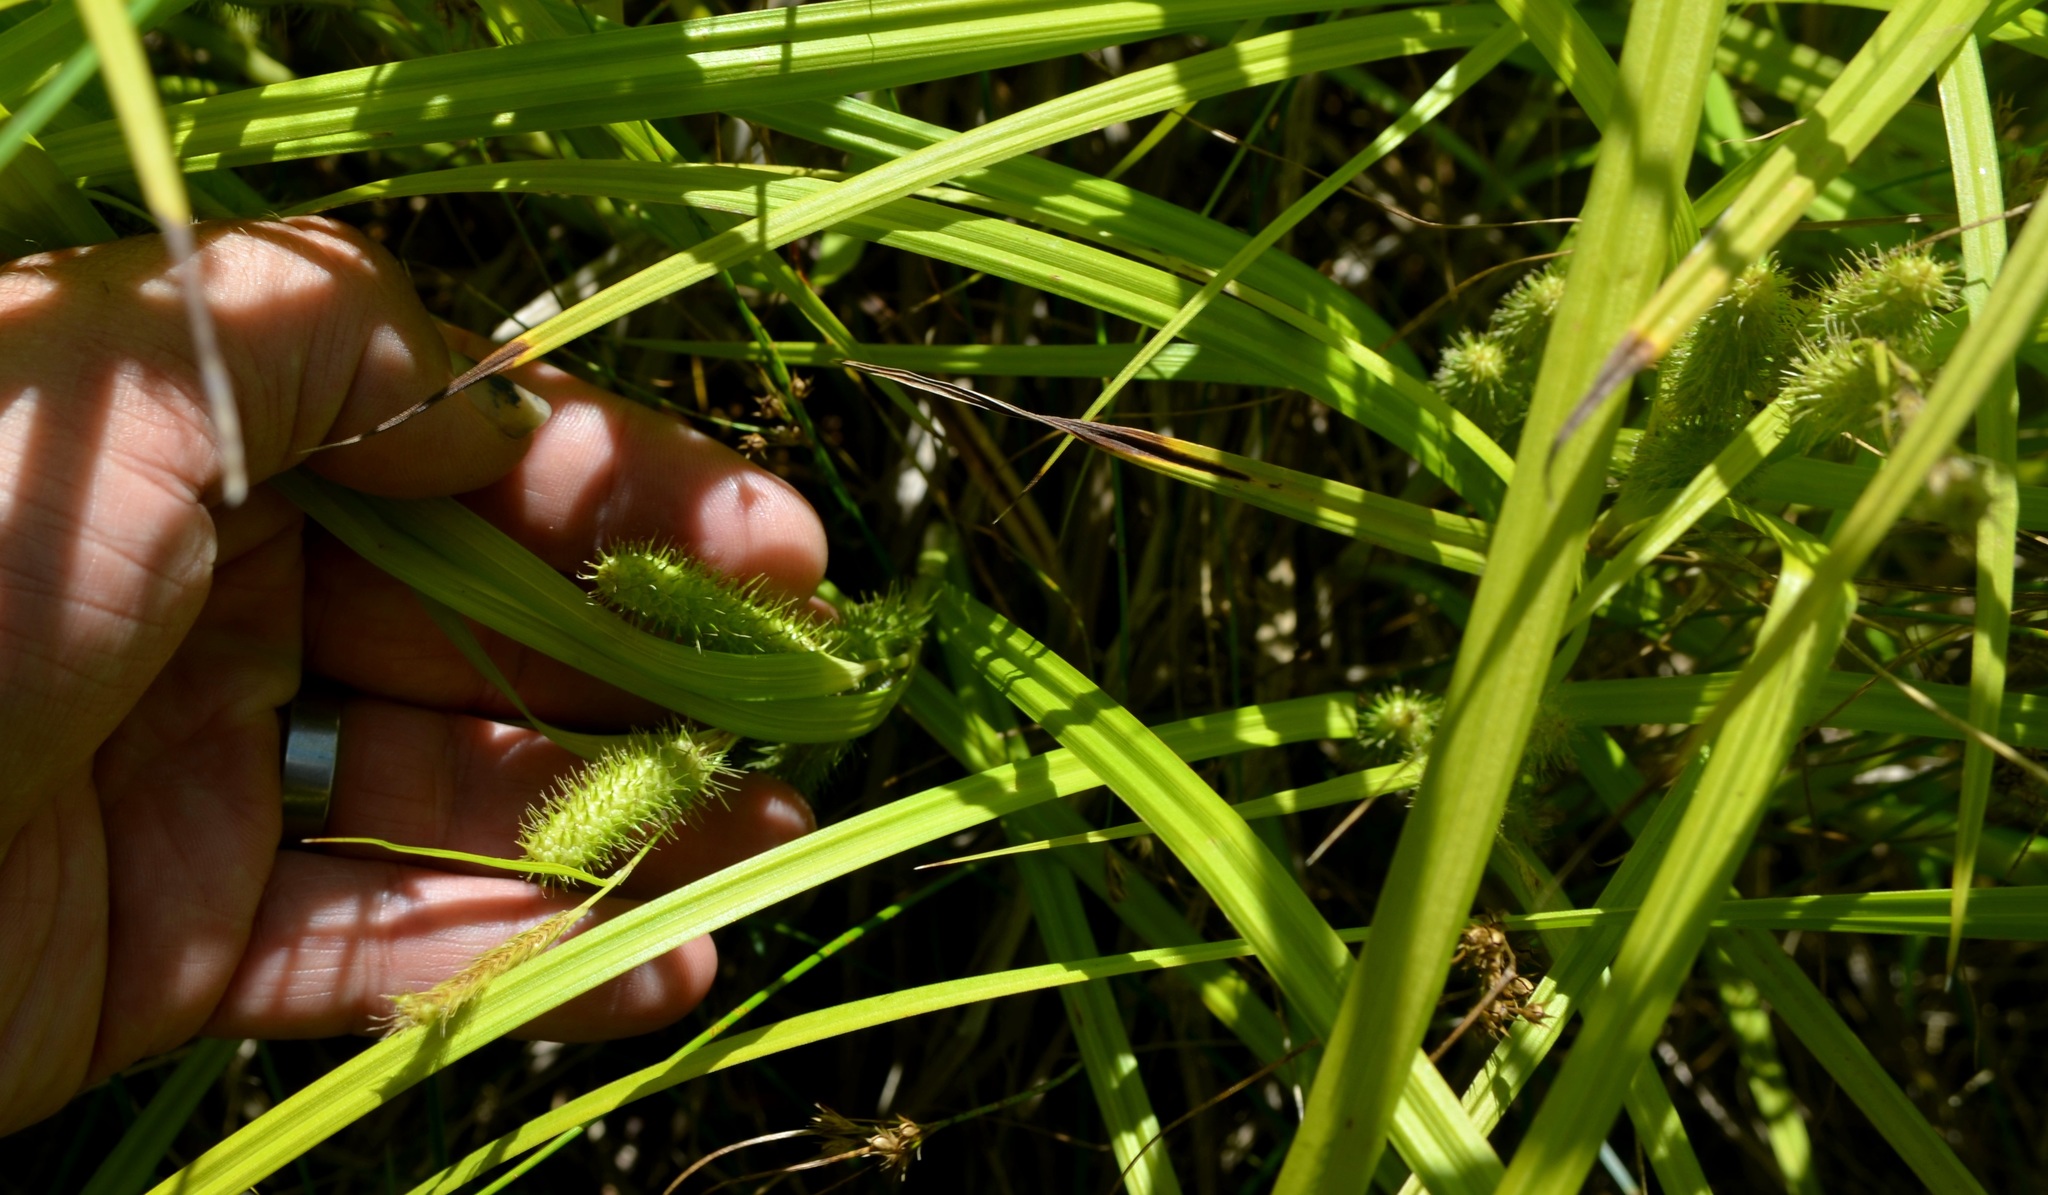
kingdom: Plantae
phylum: Tracheophyta
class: Liliopsida
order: Poales
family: Cyperaceae
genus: Carex
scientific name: Carex frankii
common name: Frank's sedge
